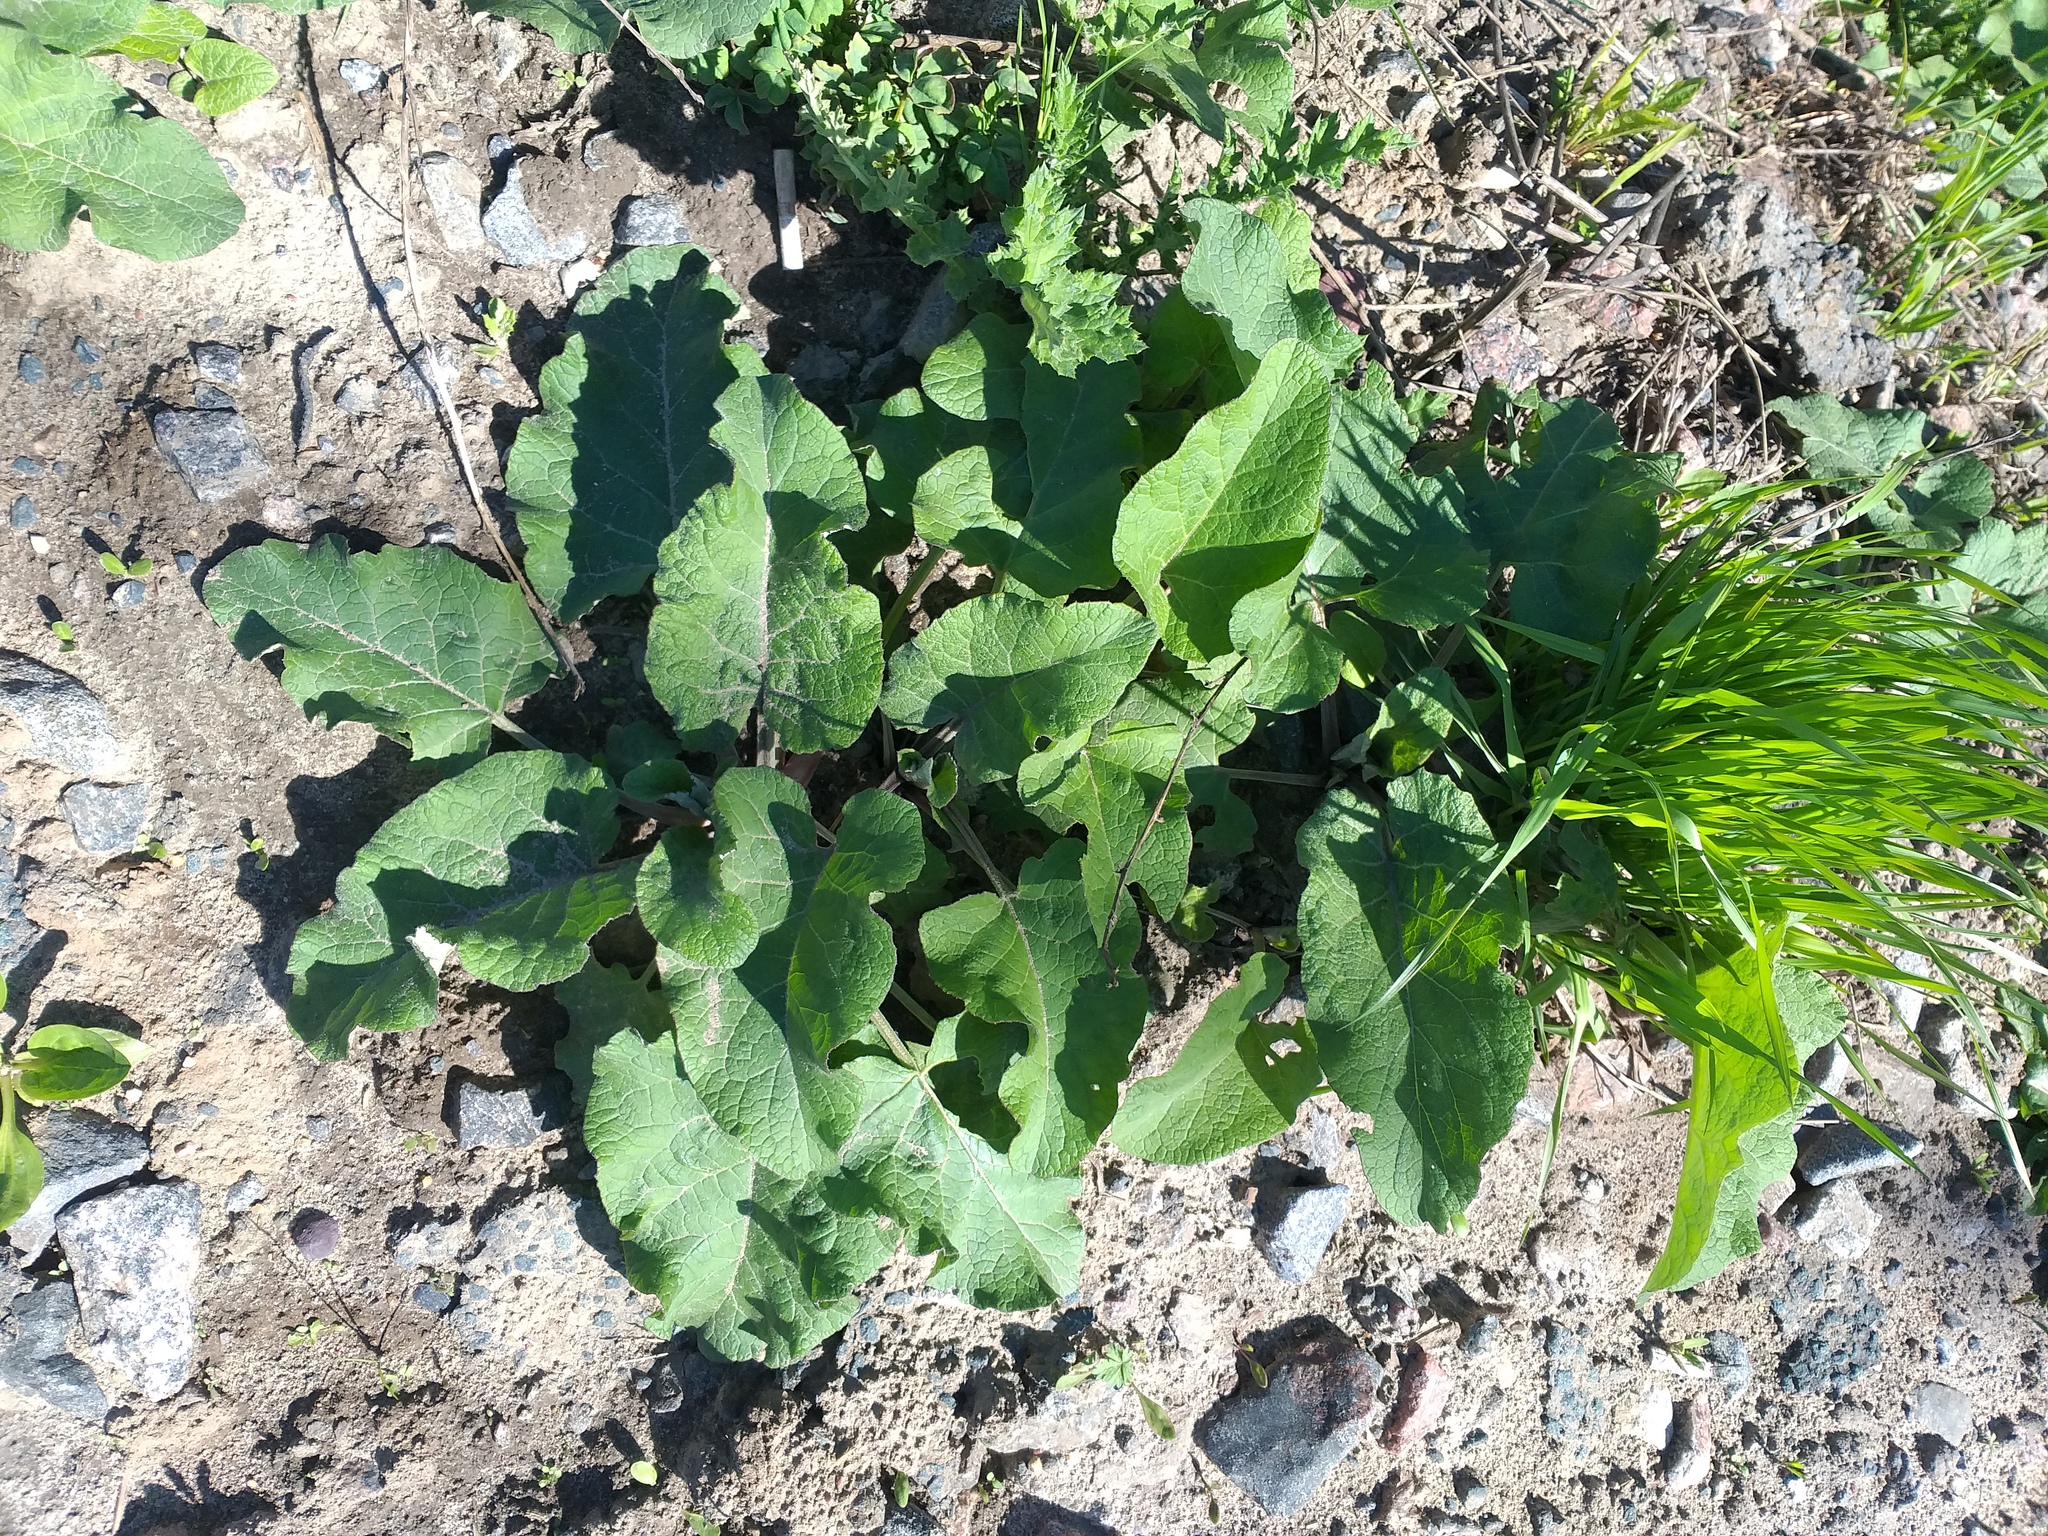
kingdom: Plantae
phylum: Tracheophyta
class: Magnoliopsida
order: Asterales
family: Asteraceae
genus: Arctium
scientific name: Arctium
